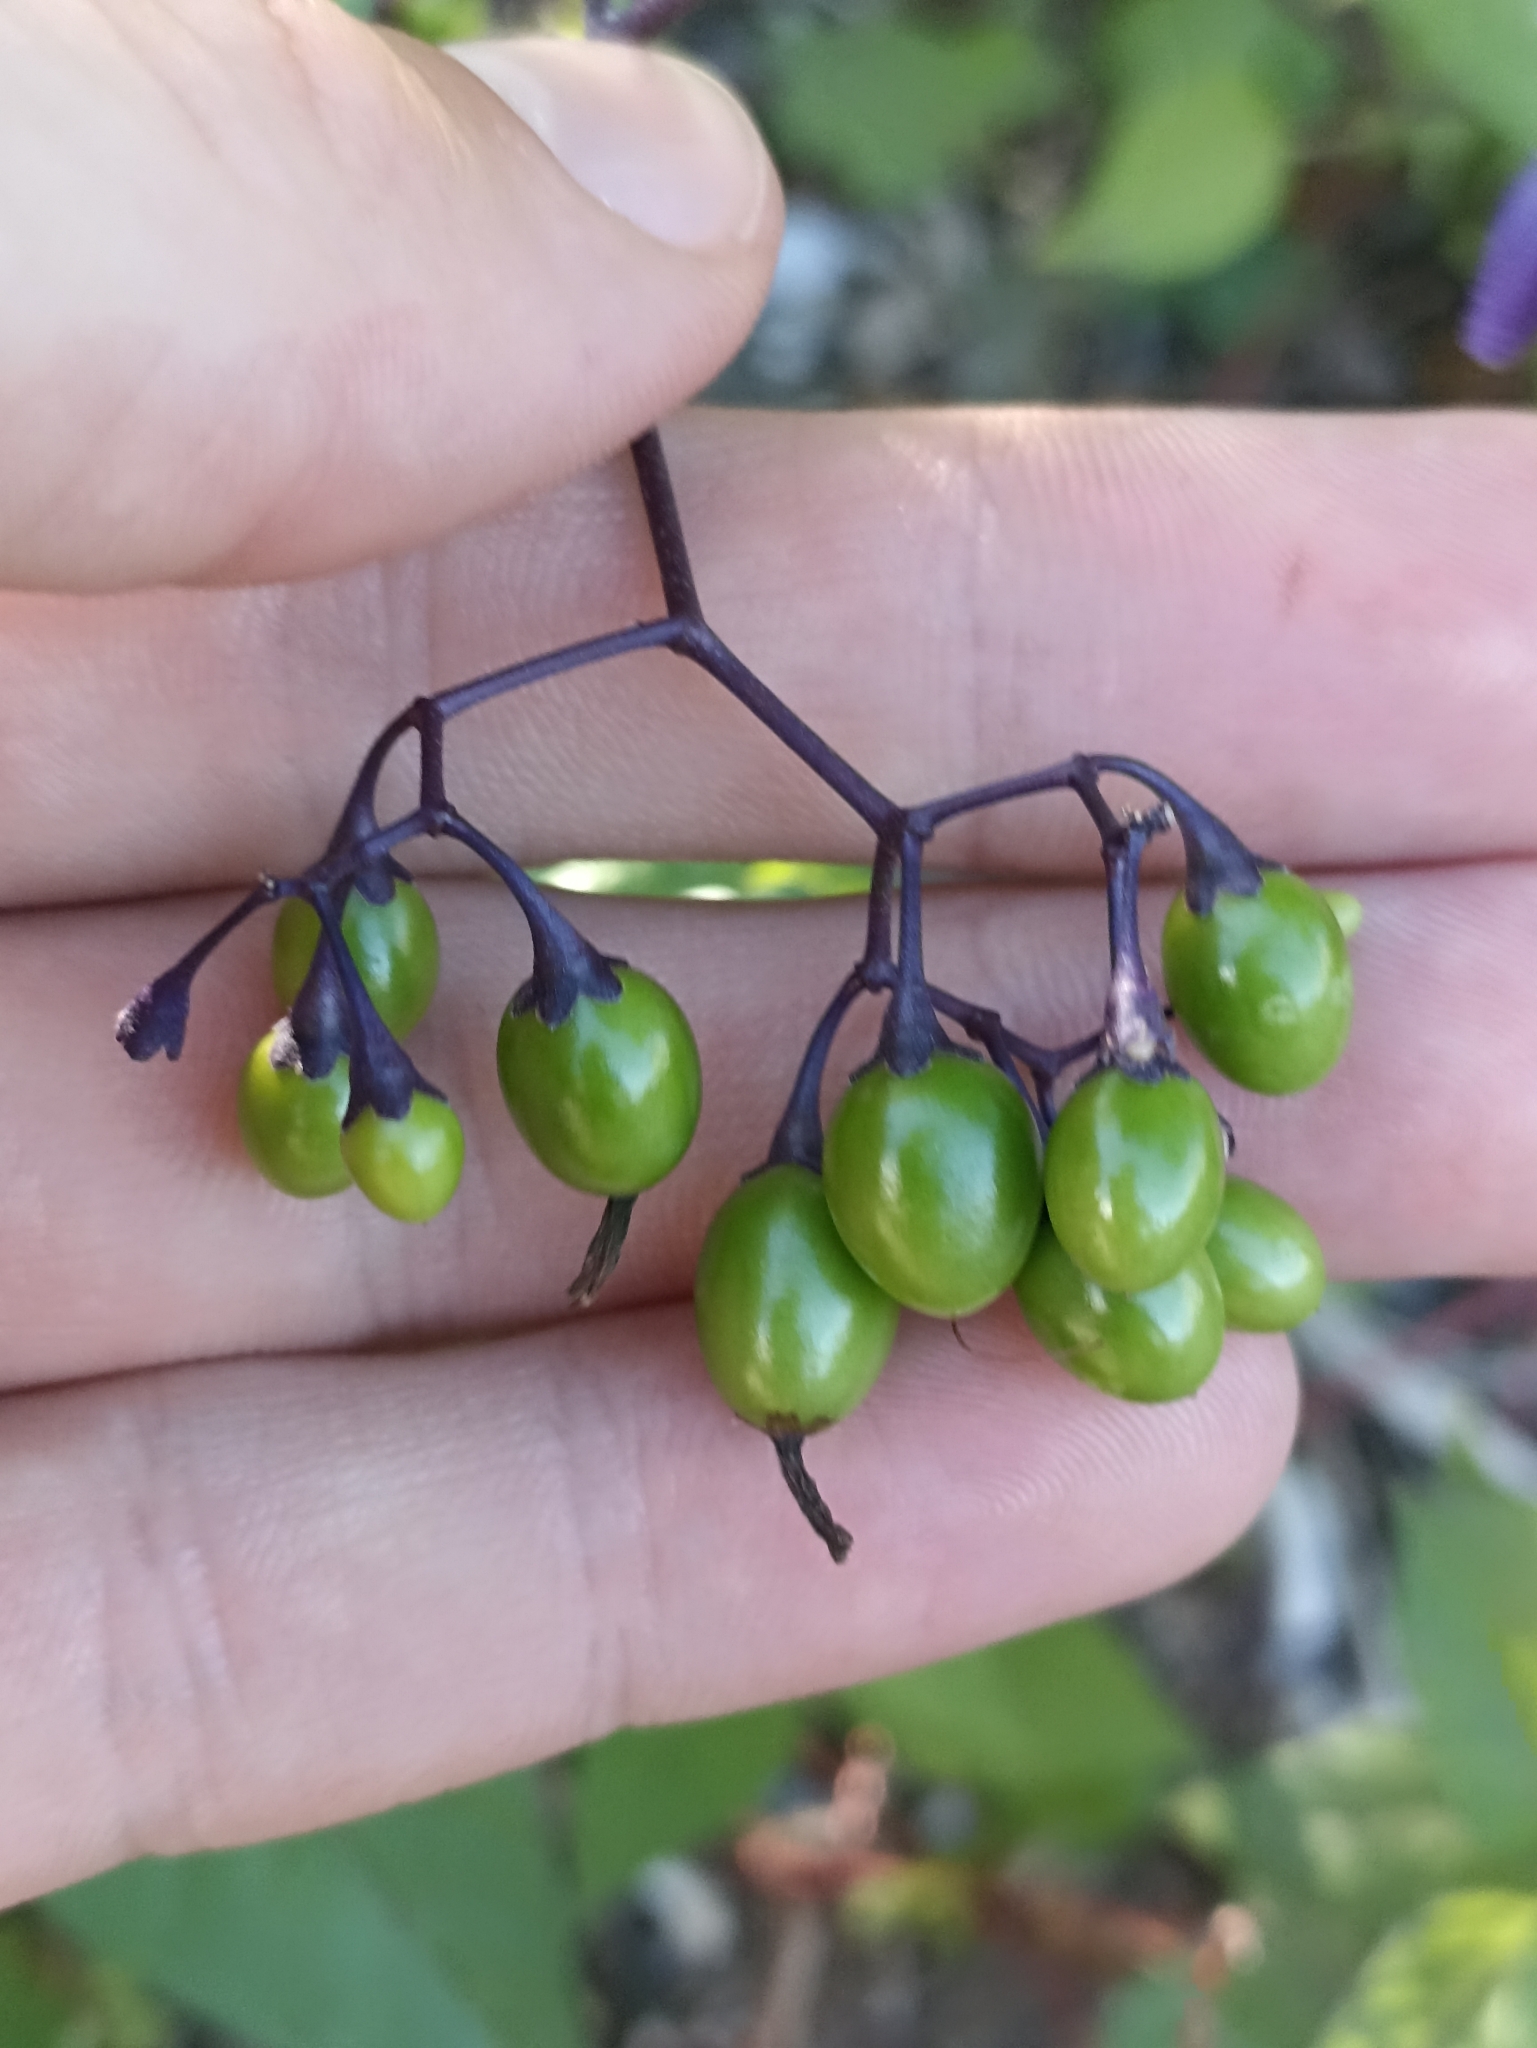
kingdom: Plantae
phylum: Tracheophyta
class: Magnoliopsida
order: Solanales
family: Solanaceae
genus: Solanum
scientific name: Solanum dulcamara
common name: Climbing nightshade
